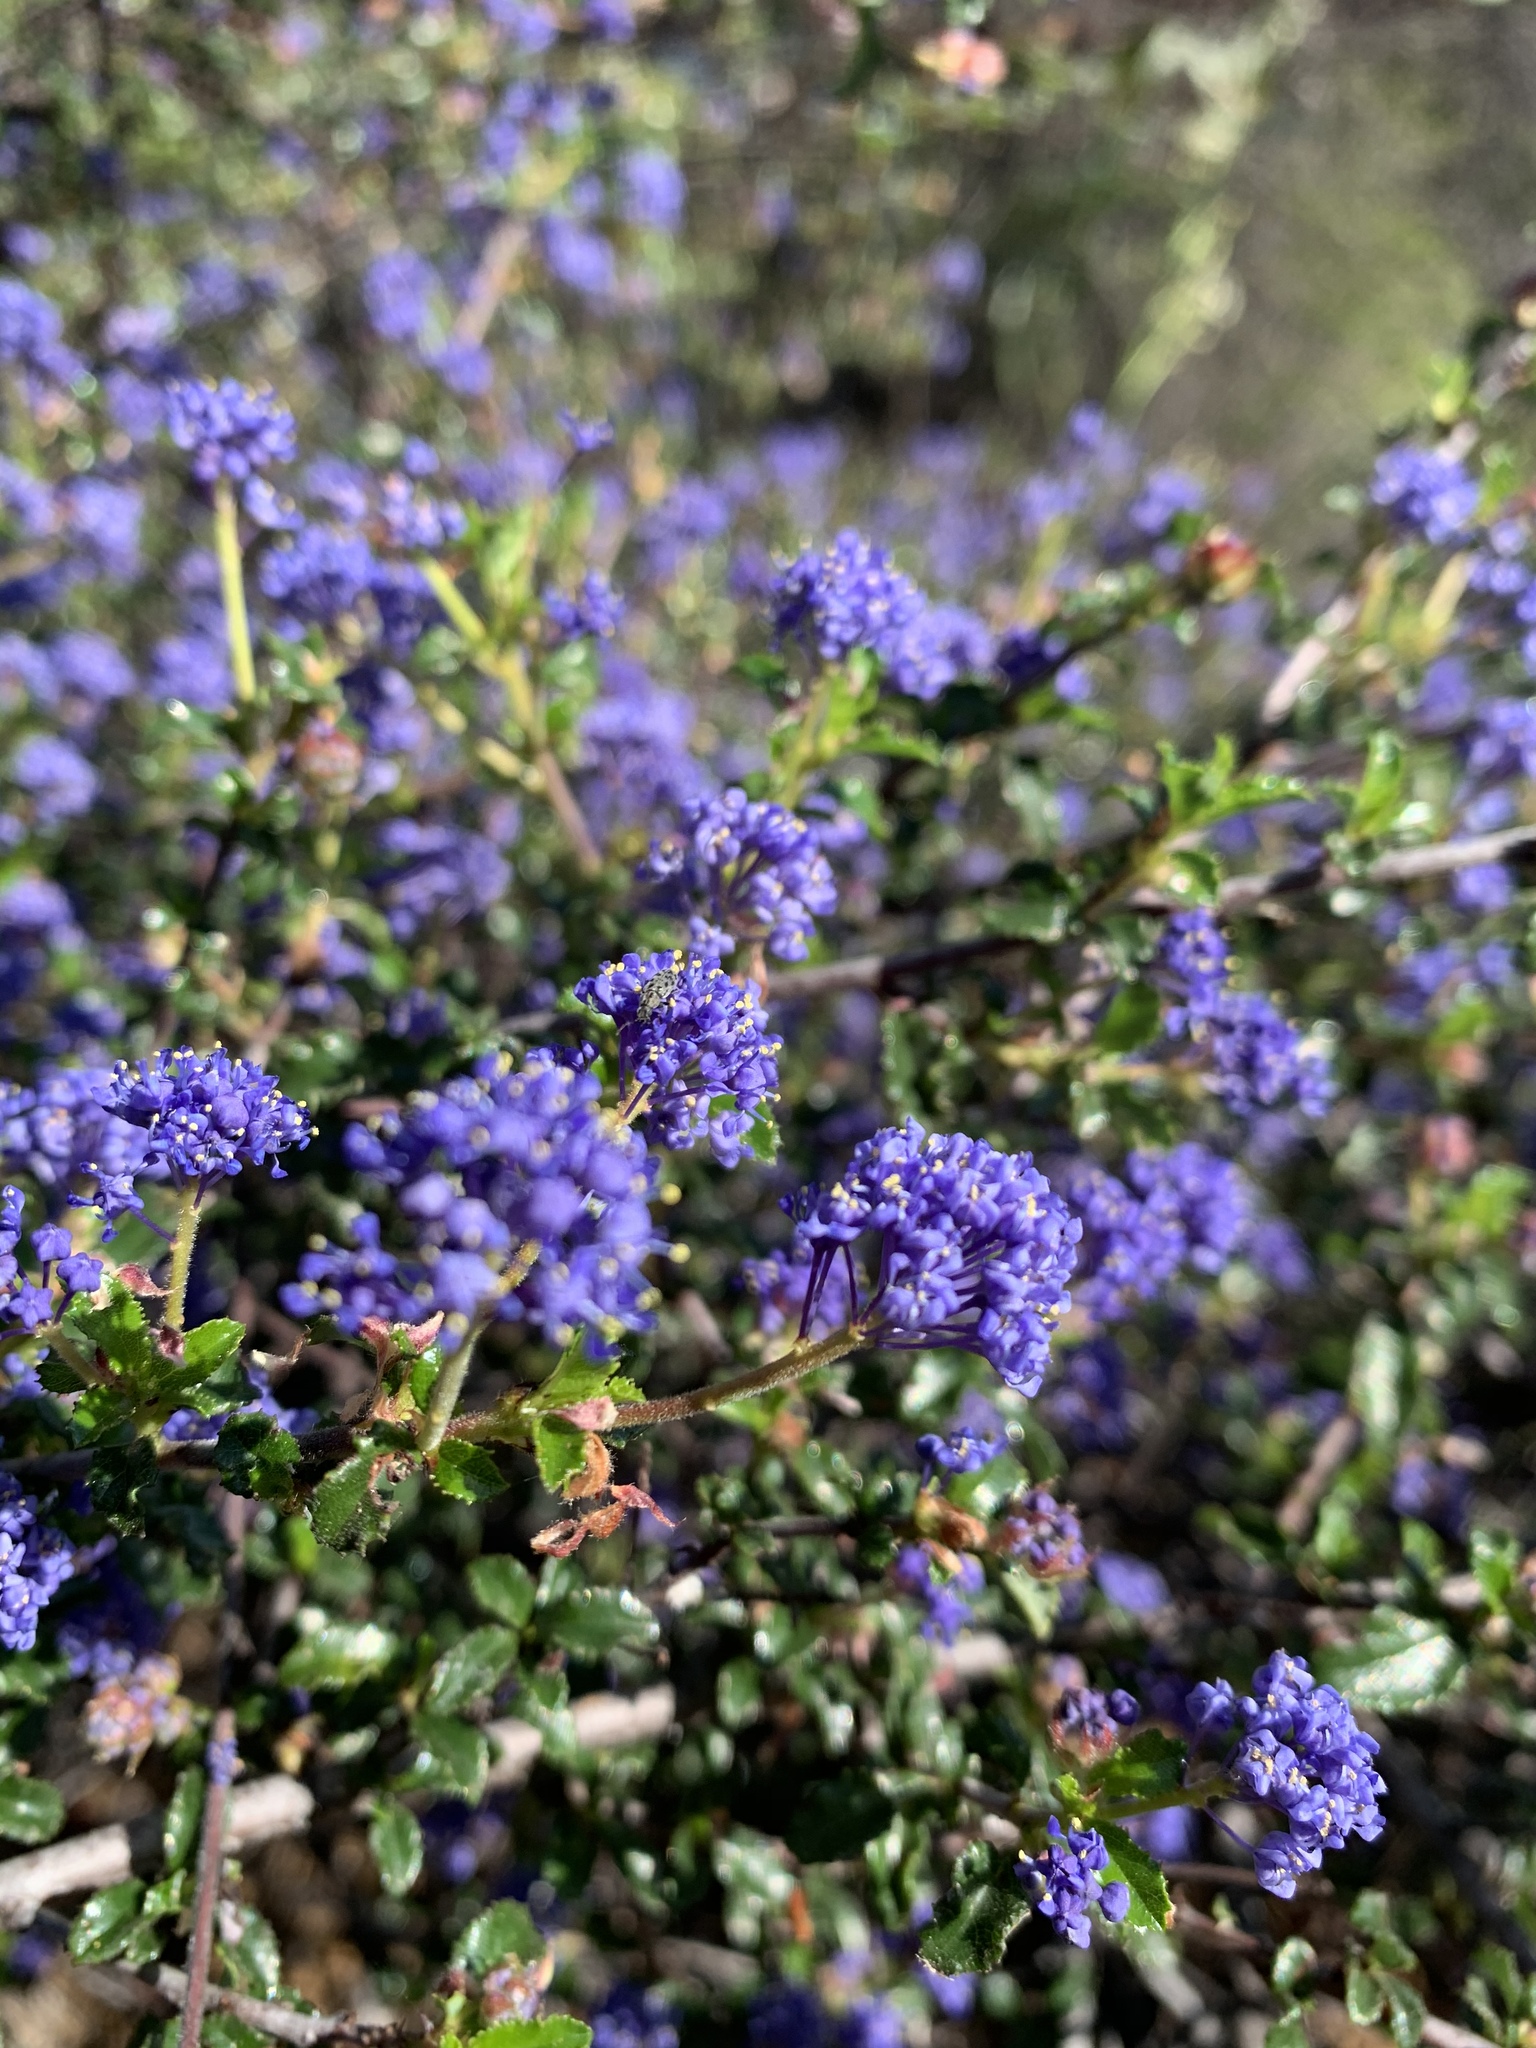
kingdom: Plantae
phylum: Tracheophyta
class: Magnoliopsida
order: Rosales
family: Rhamnaceae
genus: Ceanothus
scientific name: Ceanothus foliosus
